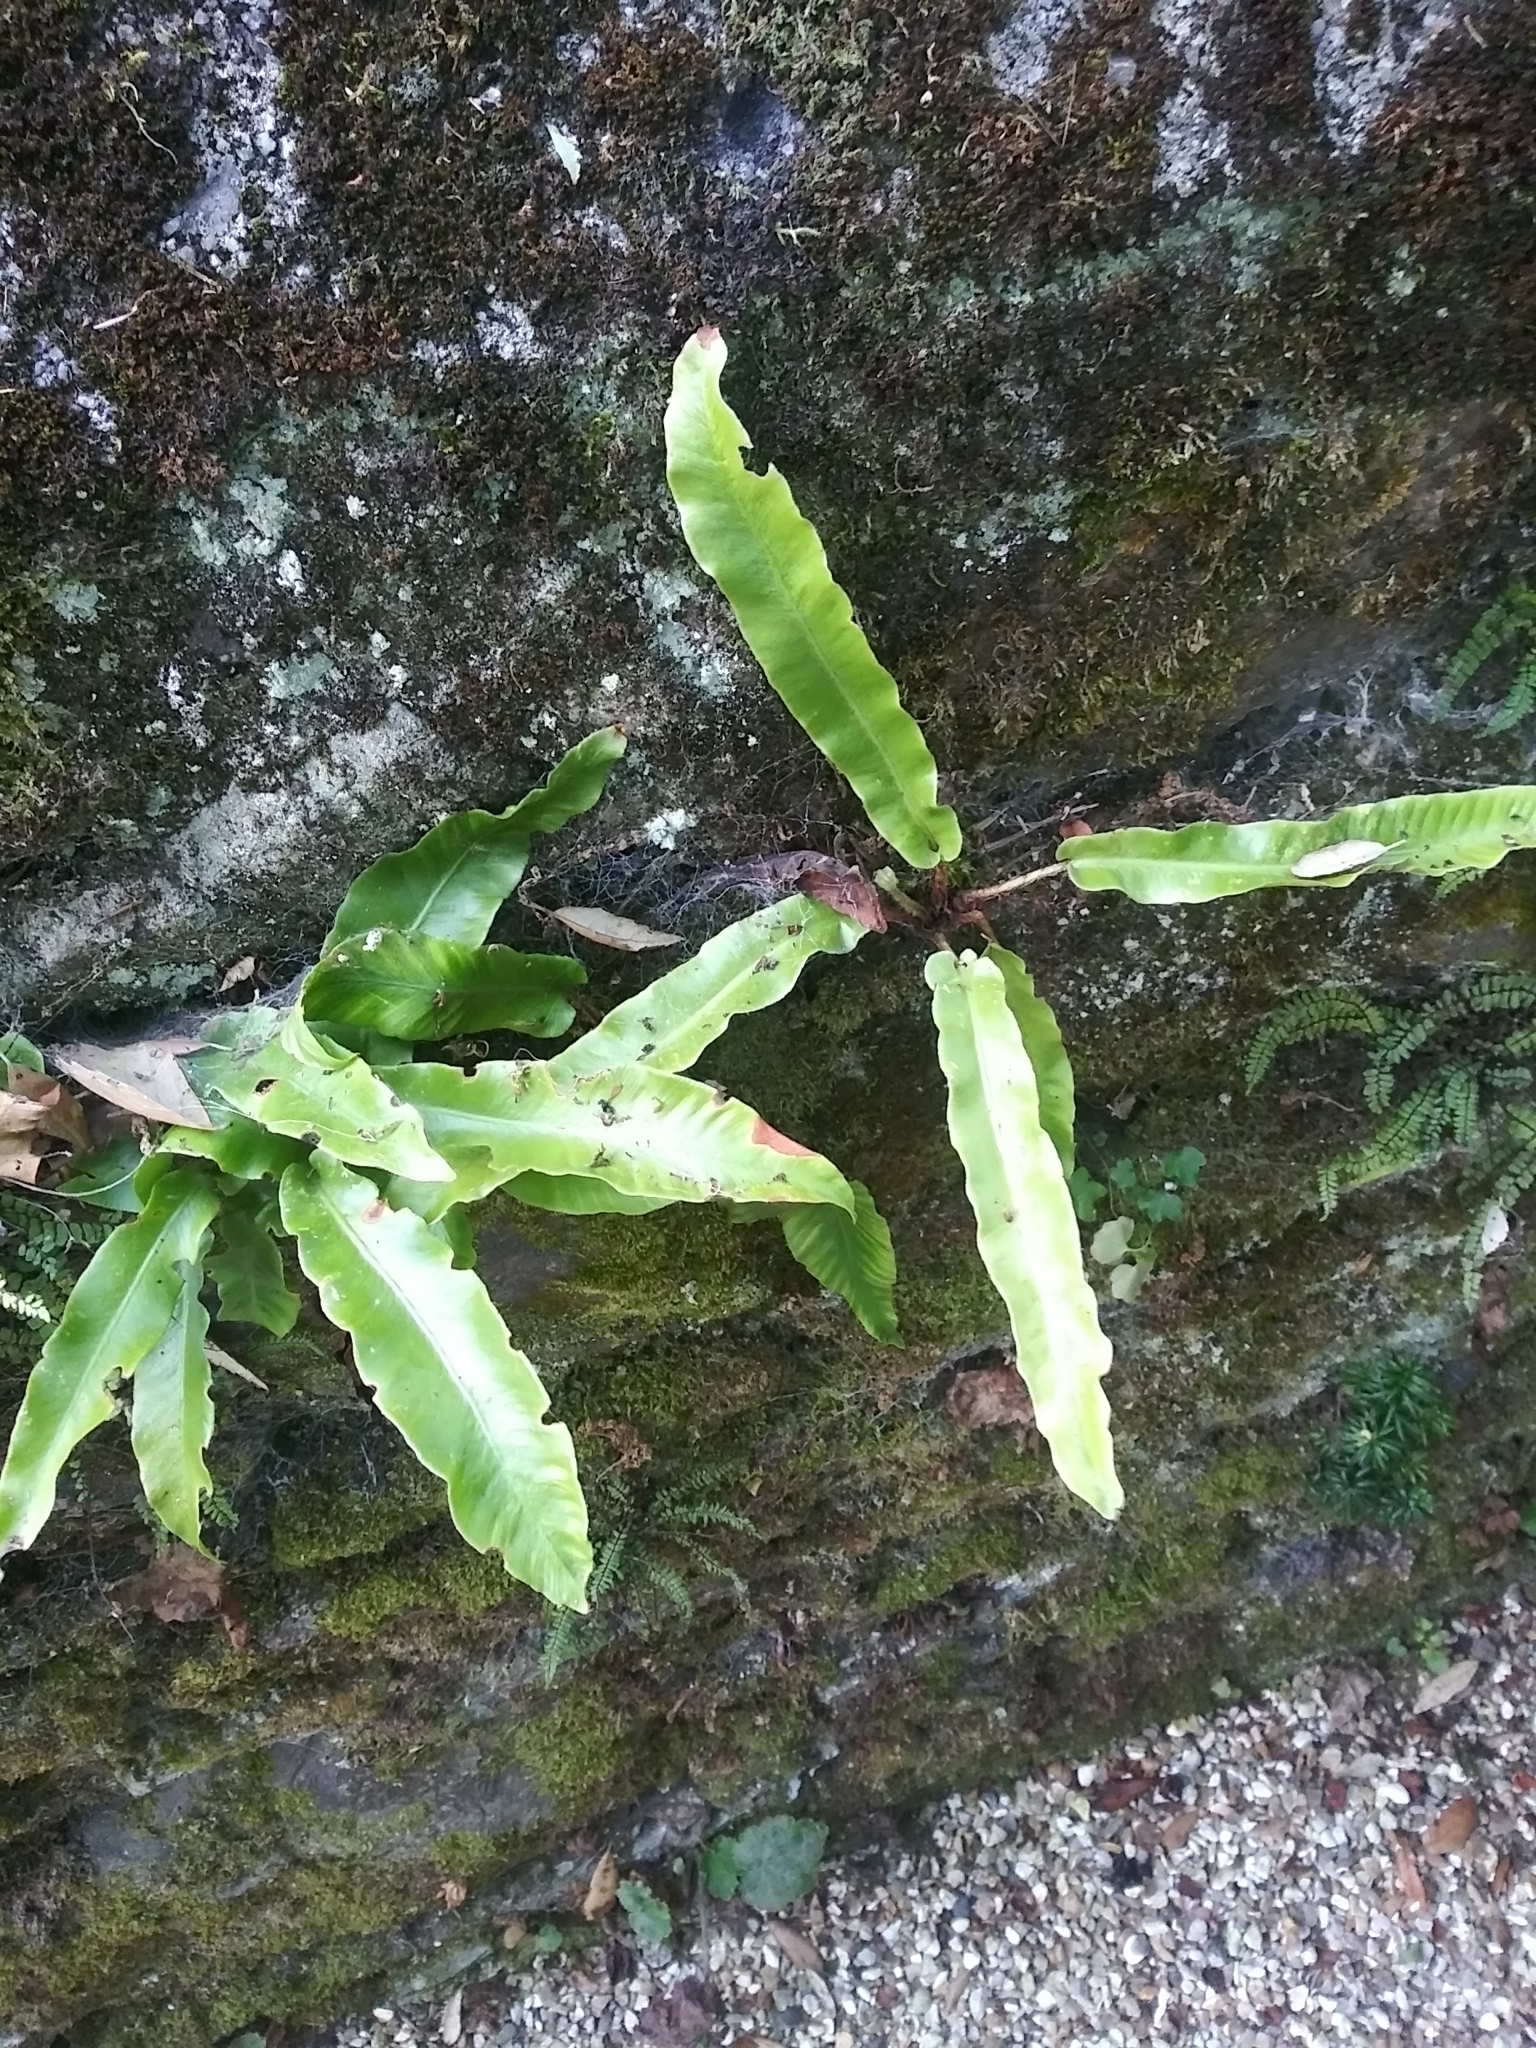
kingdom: Plantae
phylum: Tracheophyta
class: Polypodiopsida
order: Polypodiales
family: Aspleniaceae
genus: Asplenium
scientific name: Asplenium scolopendrium
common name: Hart's-tongue fern
